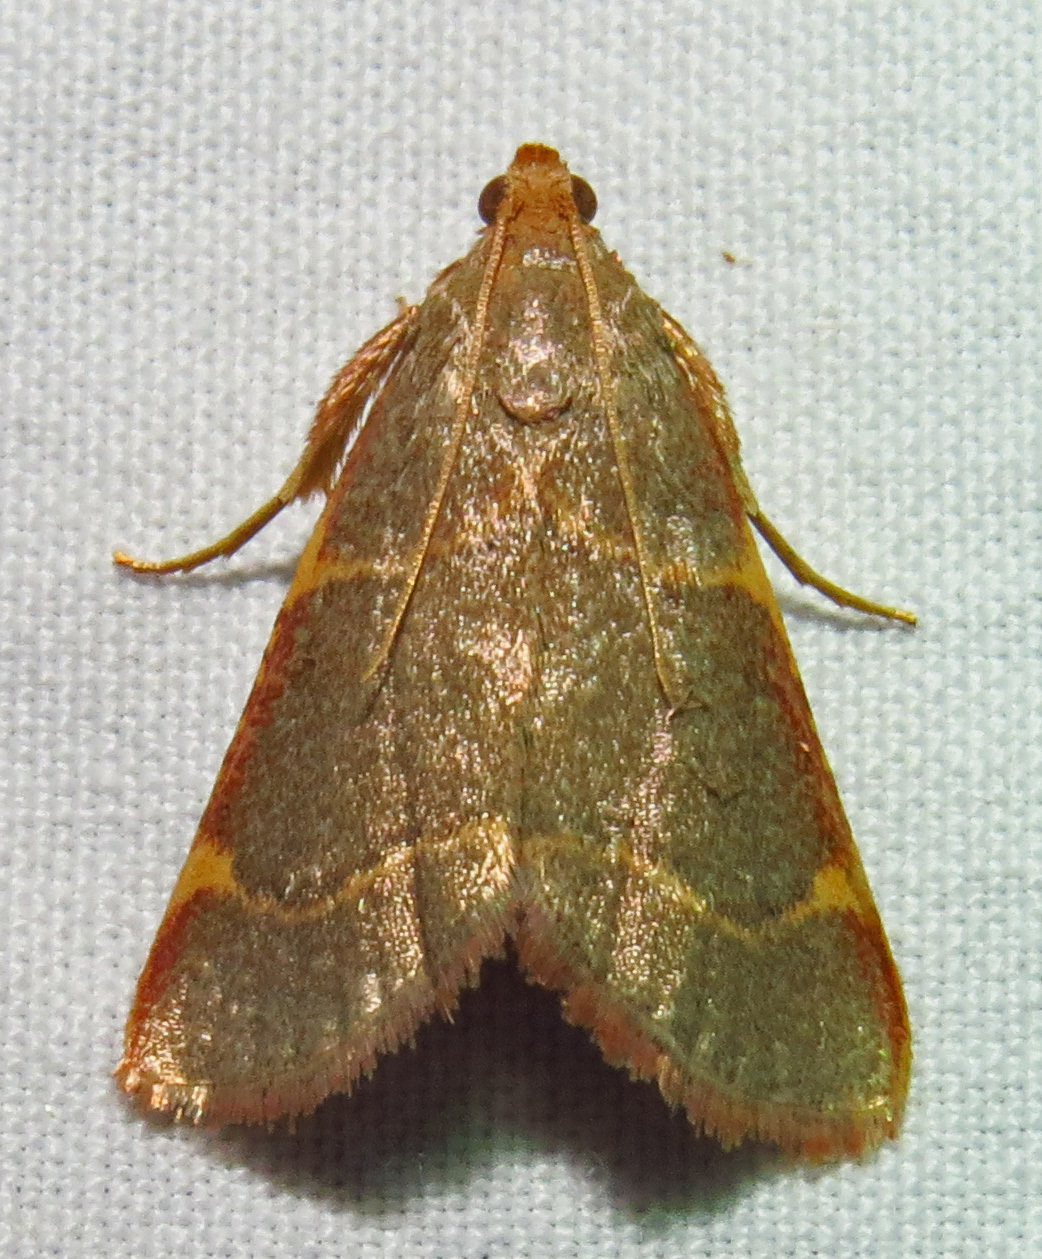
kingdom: Animalia
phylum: Arthropoda
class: Insecta
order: Lepidoptera
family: Pyralidae
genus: Hypsopygia
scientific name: Hypsopygia binodulalis
